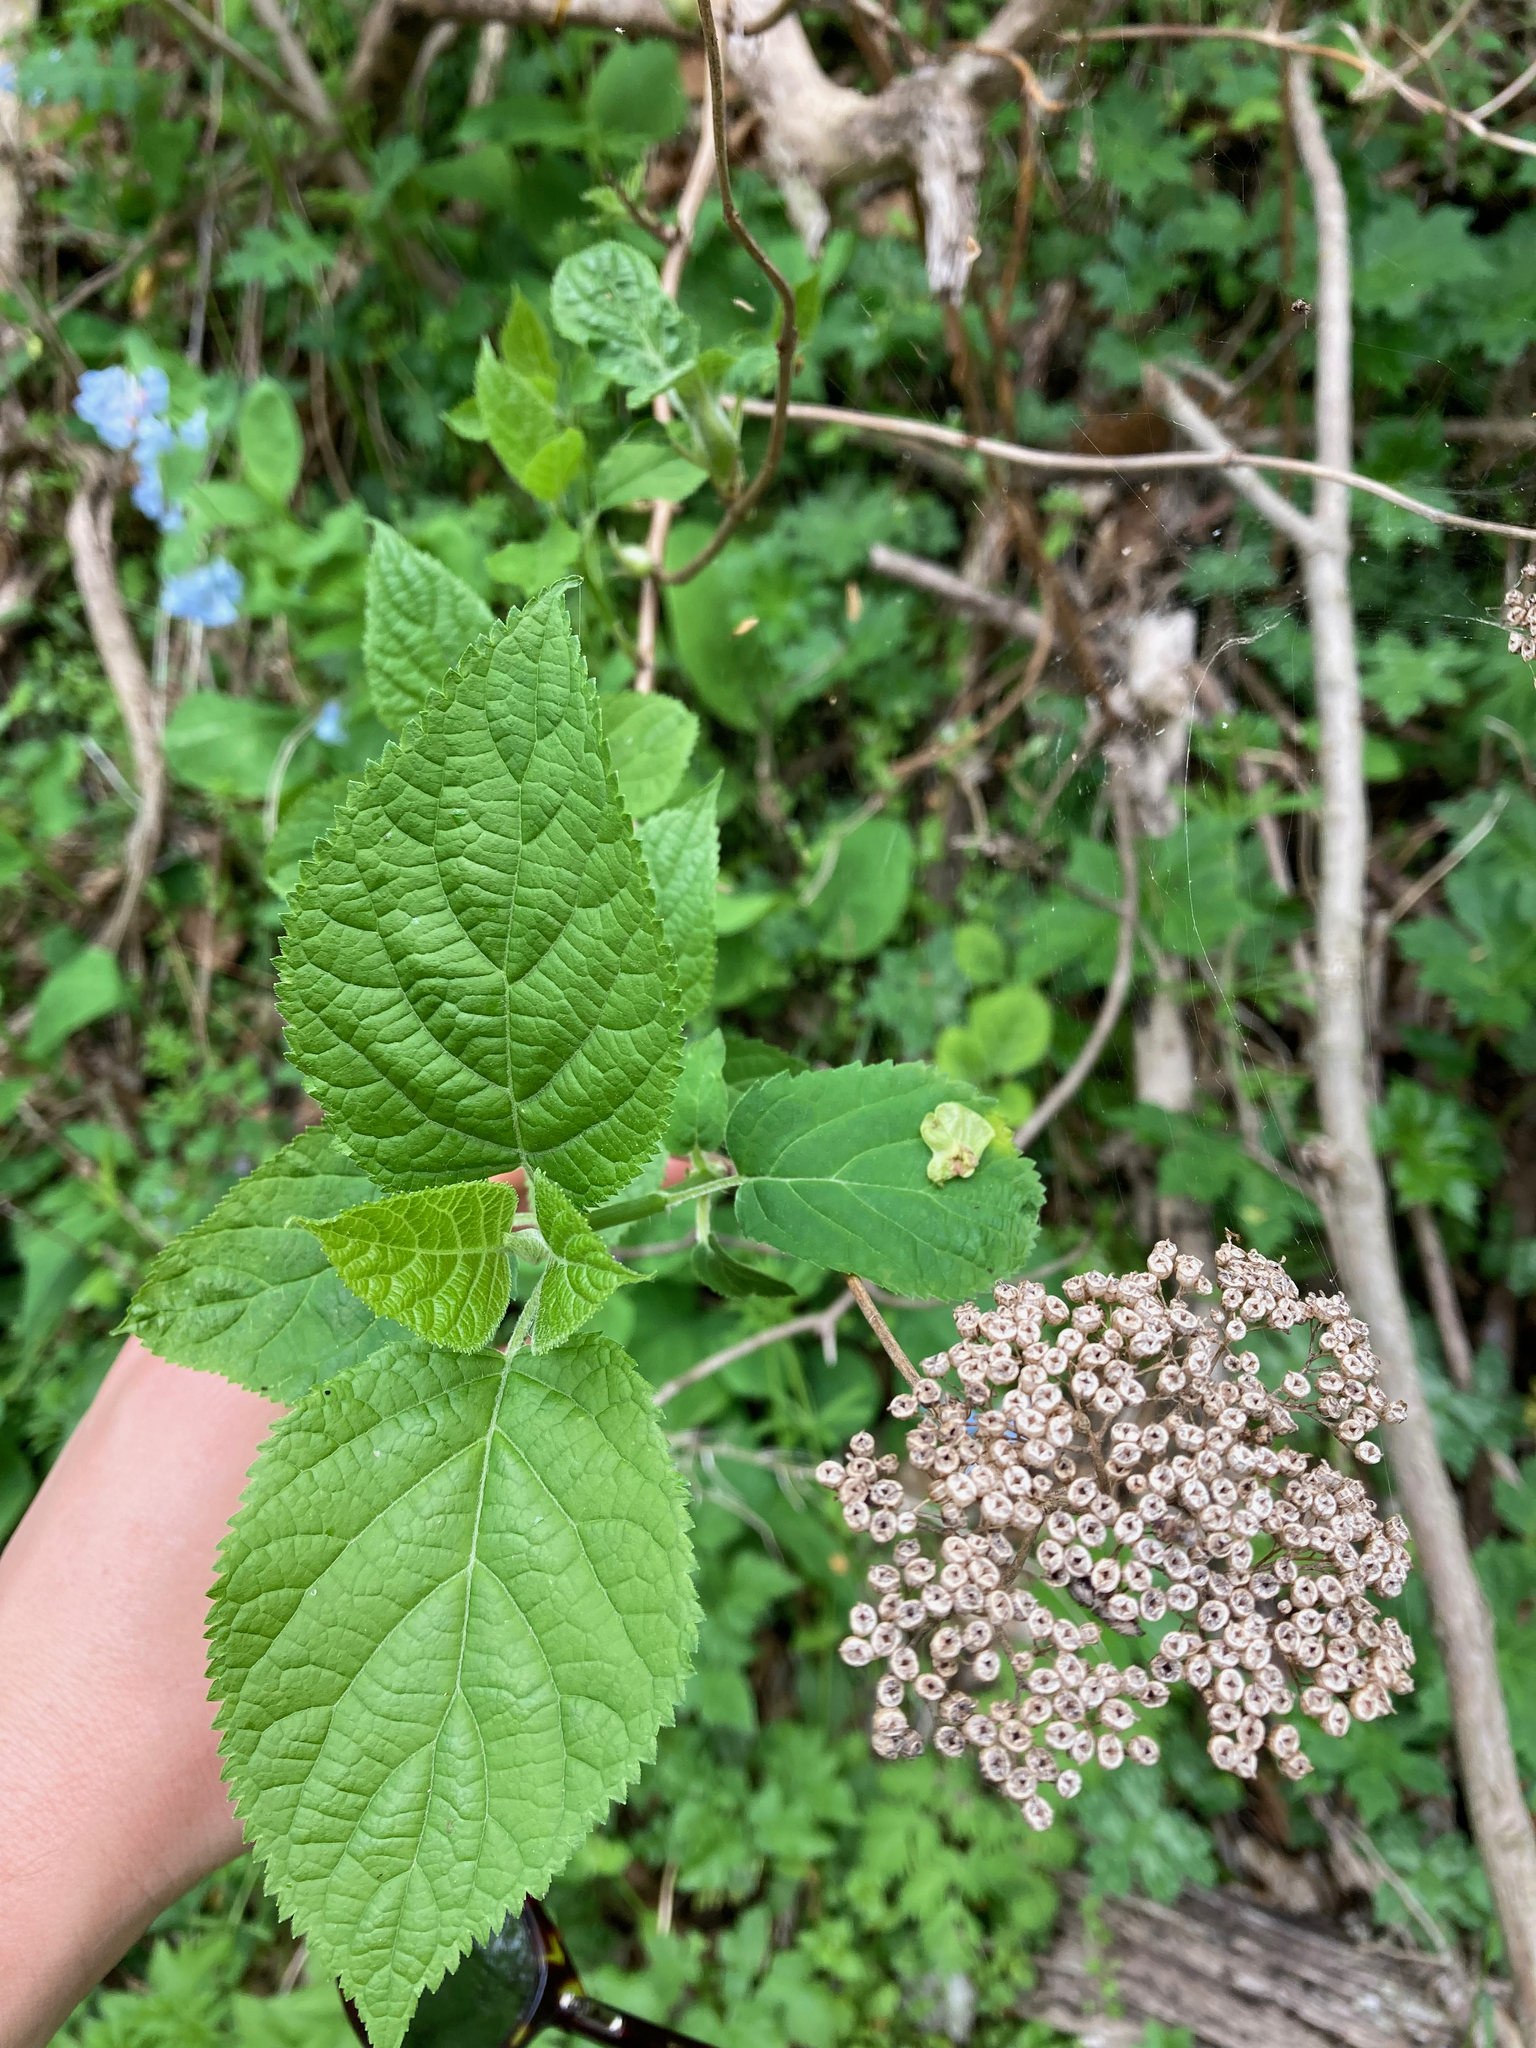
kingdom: Plantae
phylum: Tracheophyta
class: Magnoliopsida
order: Cornales
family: Hydrangeaceae
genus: Hydrangea
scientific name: Hydrangea arborescens
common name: Sevenbark
